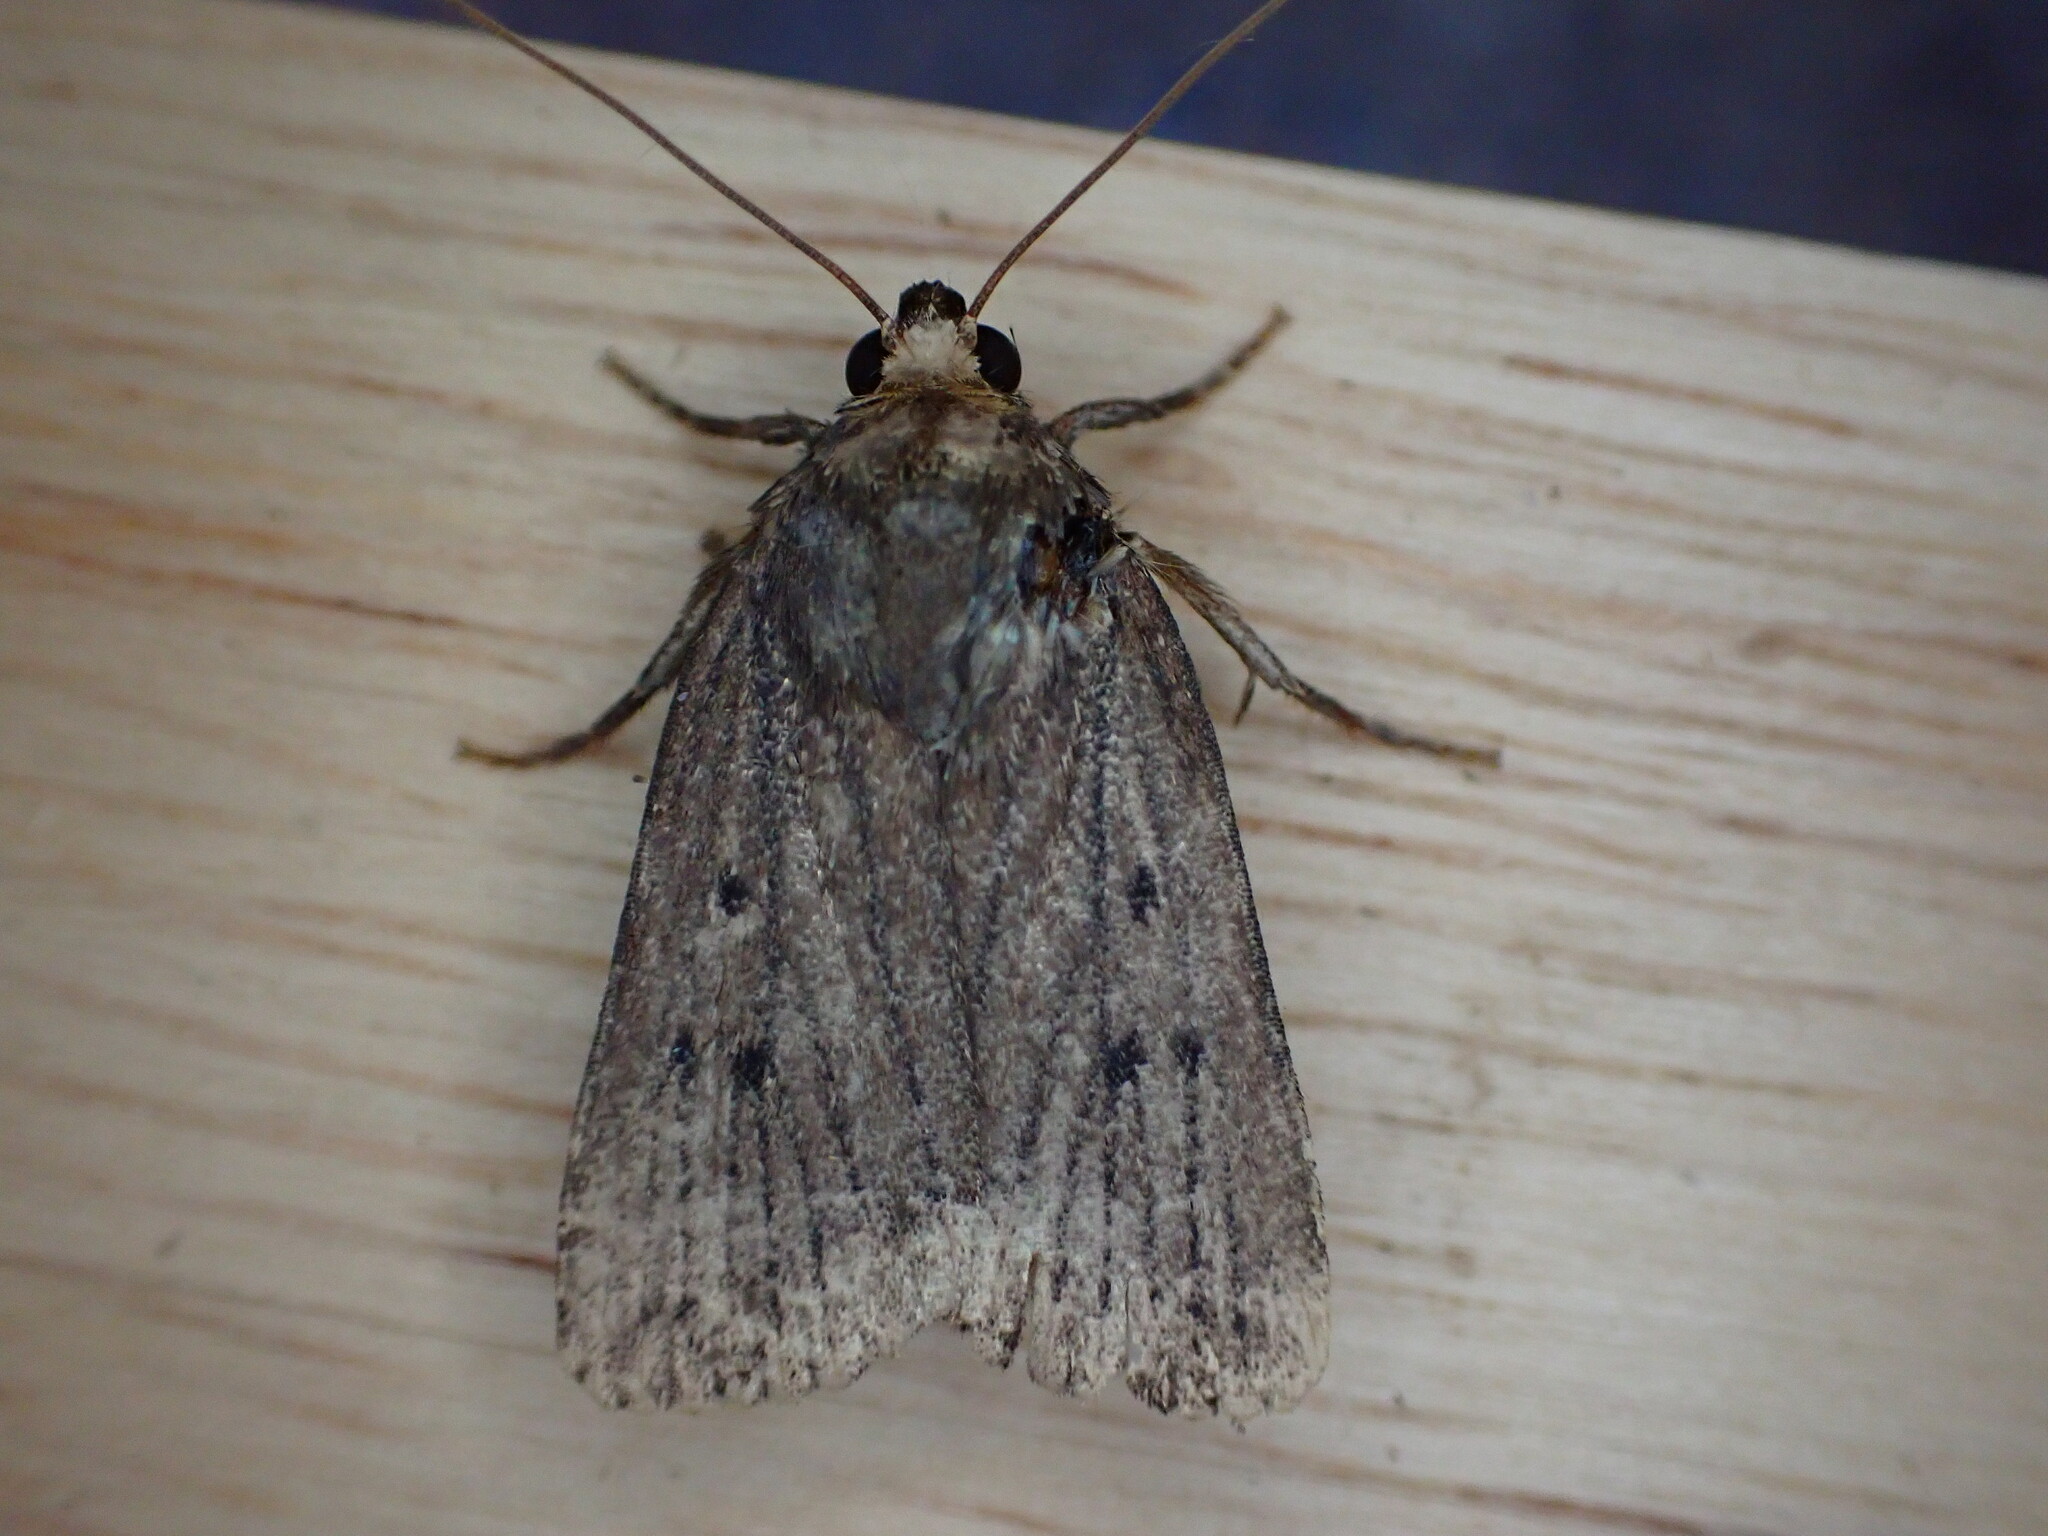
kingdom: Animalia
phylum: Arthropoda
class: Insecta
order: Lepidoptera
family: Noctuidae
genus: Amphipyra
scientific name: Amphipyra tragopoginis
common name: Mouse moth
